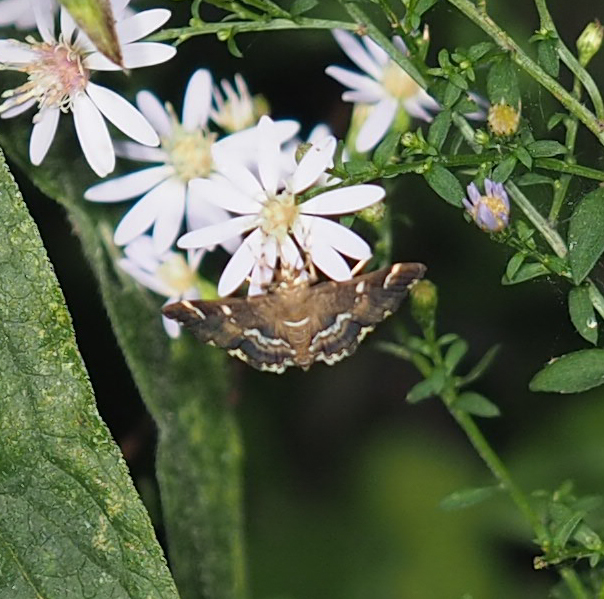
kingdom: Animalia
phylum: Arthropoda
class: Insecta
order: Lepidoptera
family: Crambidae
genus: Hymenia
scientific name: Hymenia perspectalis
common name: Spotted beet webworm
